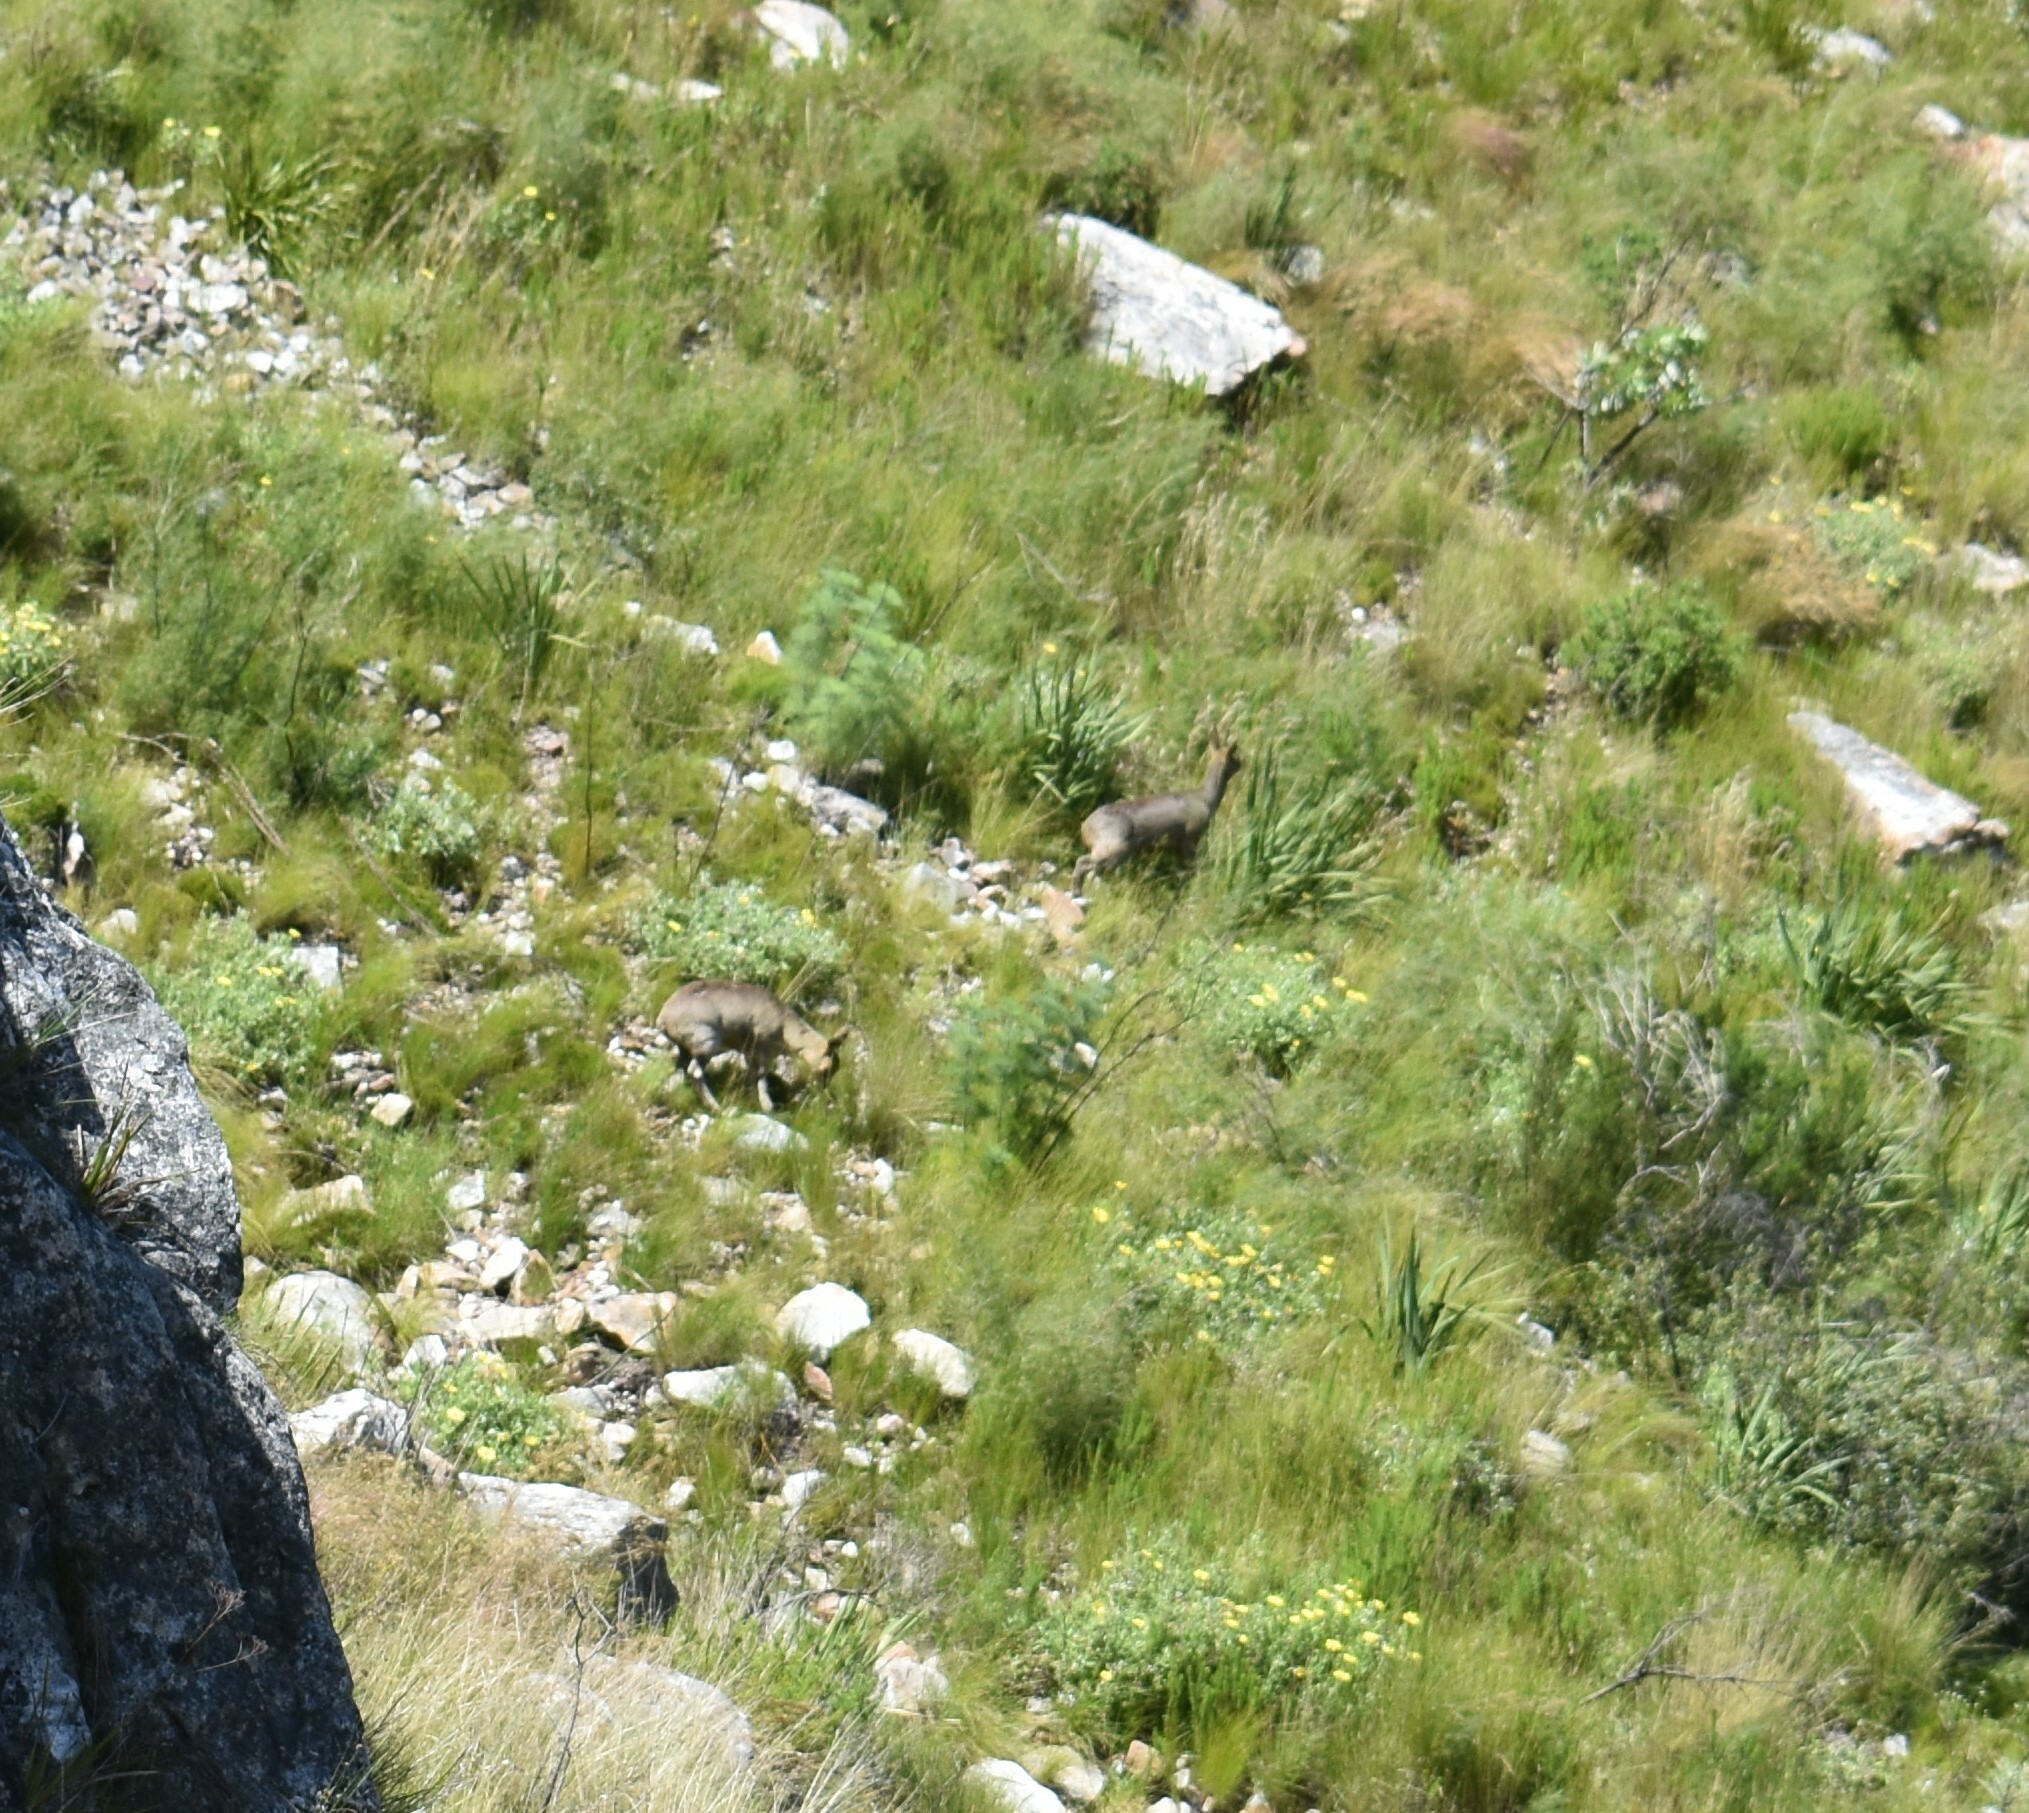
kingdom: Animalia
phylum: Chordata
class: Mammalia
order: Artiodactyla
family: Bovidae
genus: Oreotragus
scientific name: Oreotragus oreotragus
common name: Klipspringer
